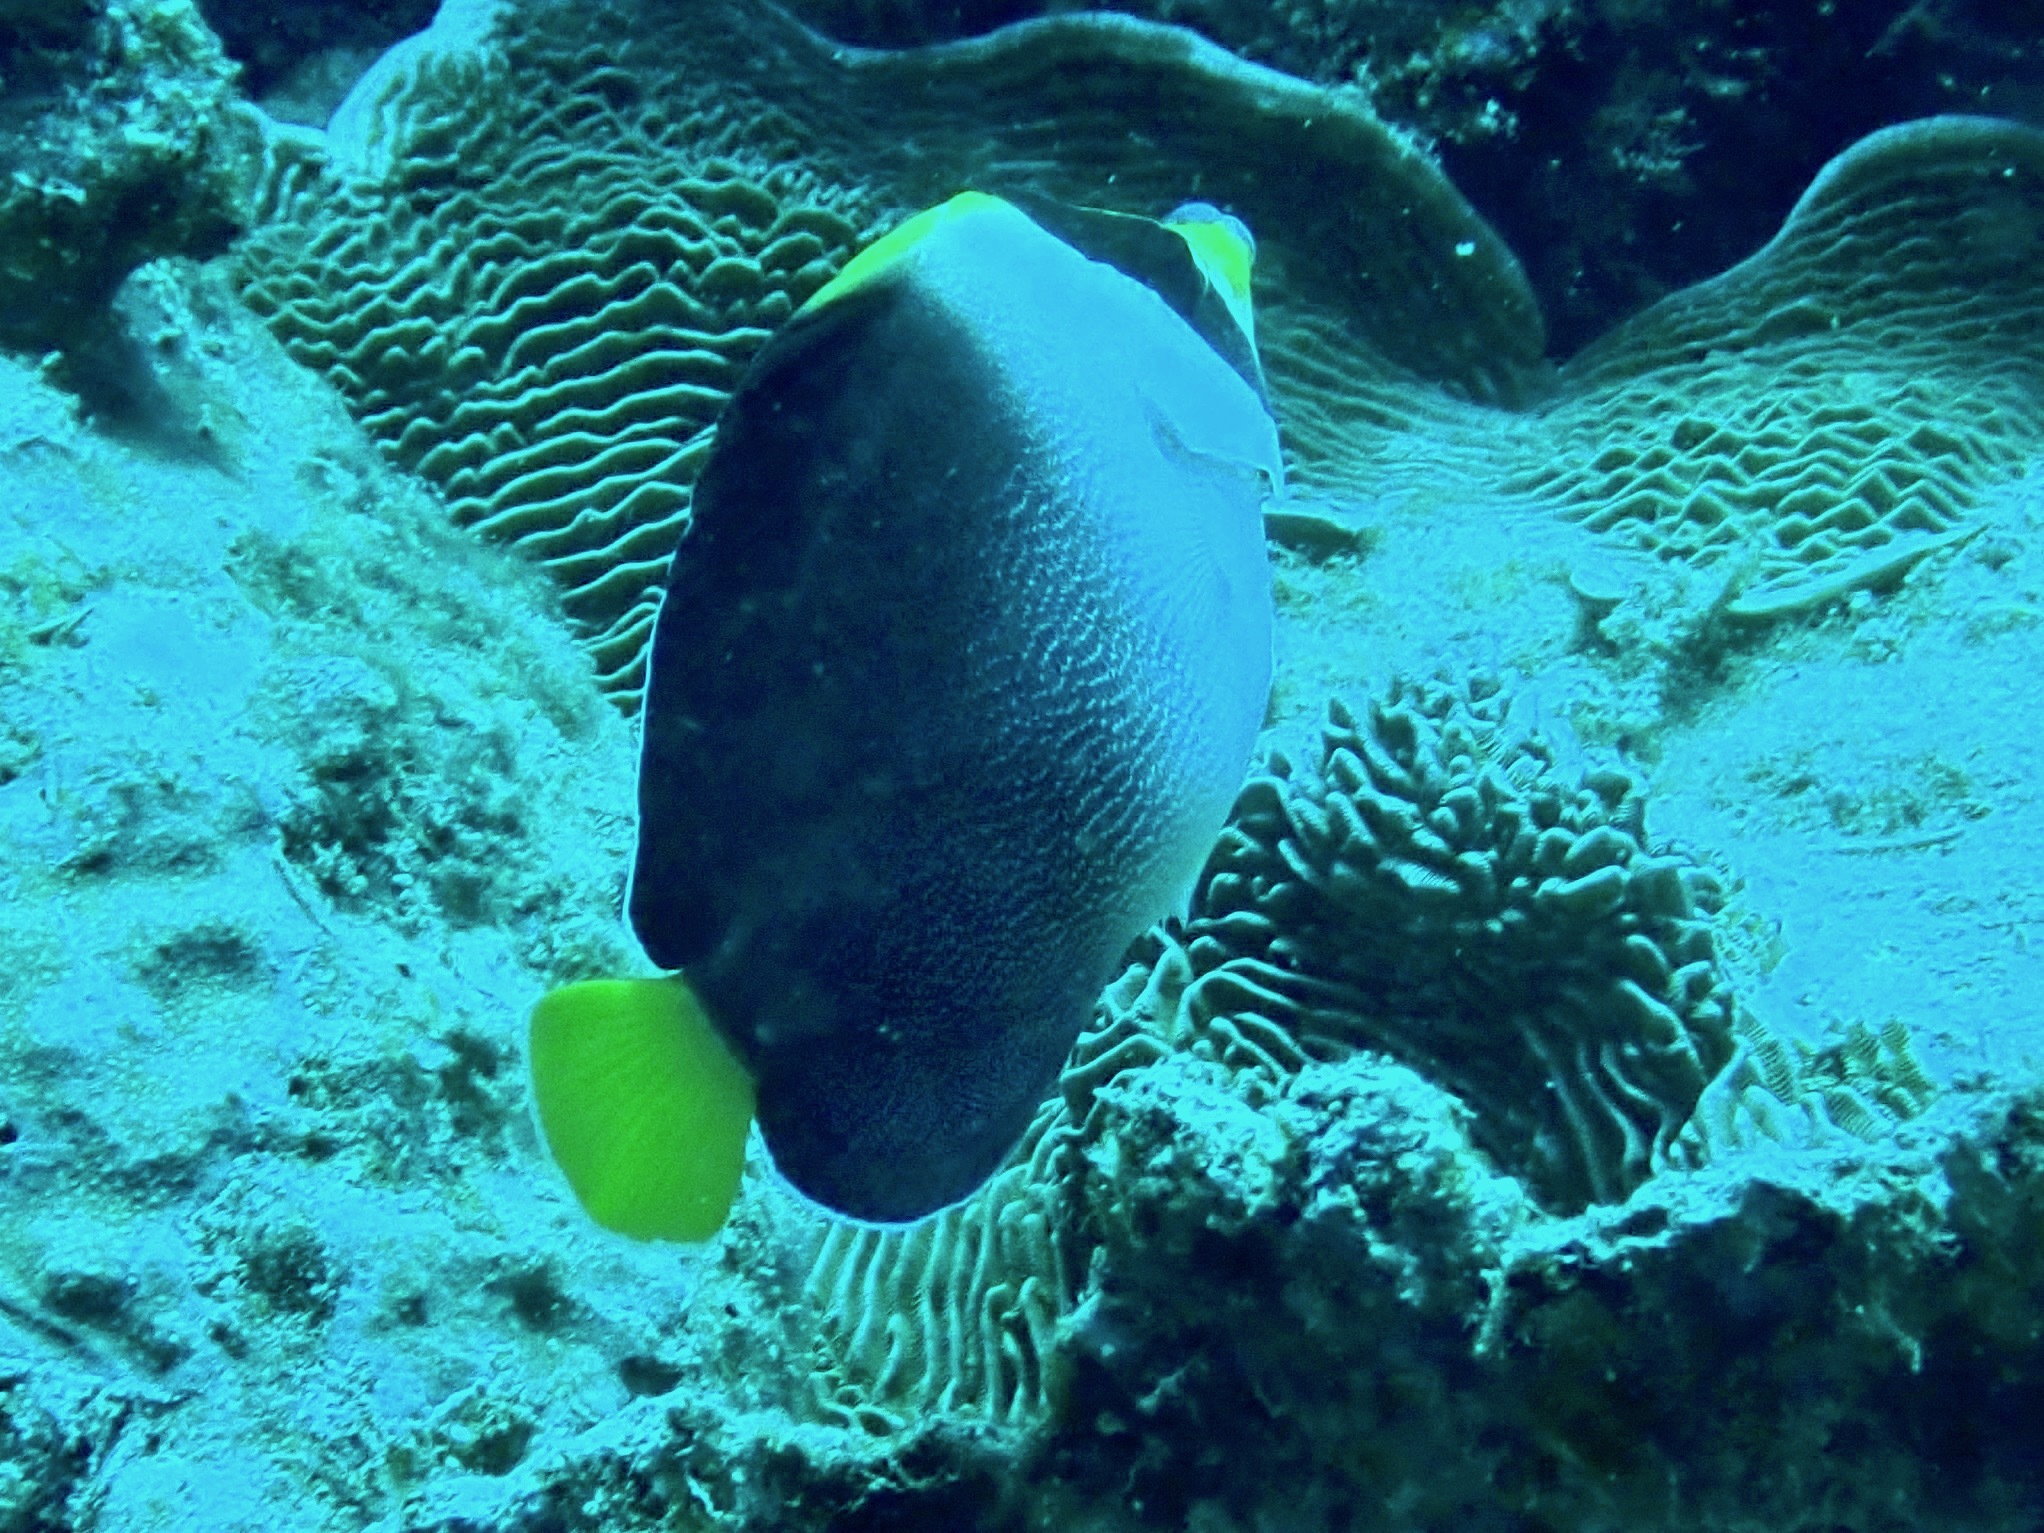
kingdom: Animalia
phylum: Chordata
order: Perciformes
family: Pomacanthidae
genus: Chaetodontoplus
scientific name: Chaetodontoplus mesoleucus
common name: Vermiculated angelfish
